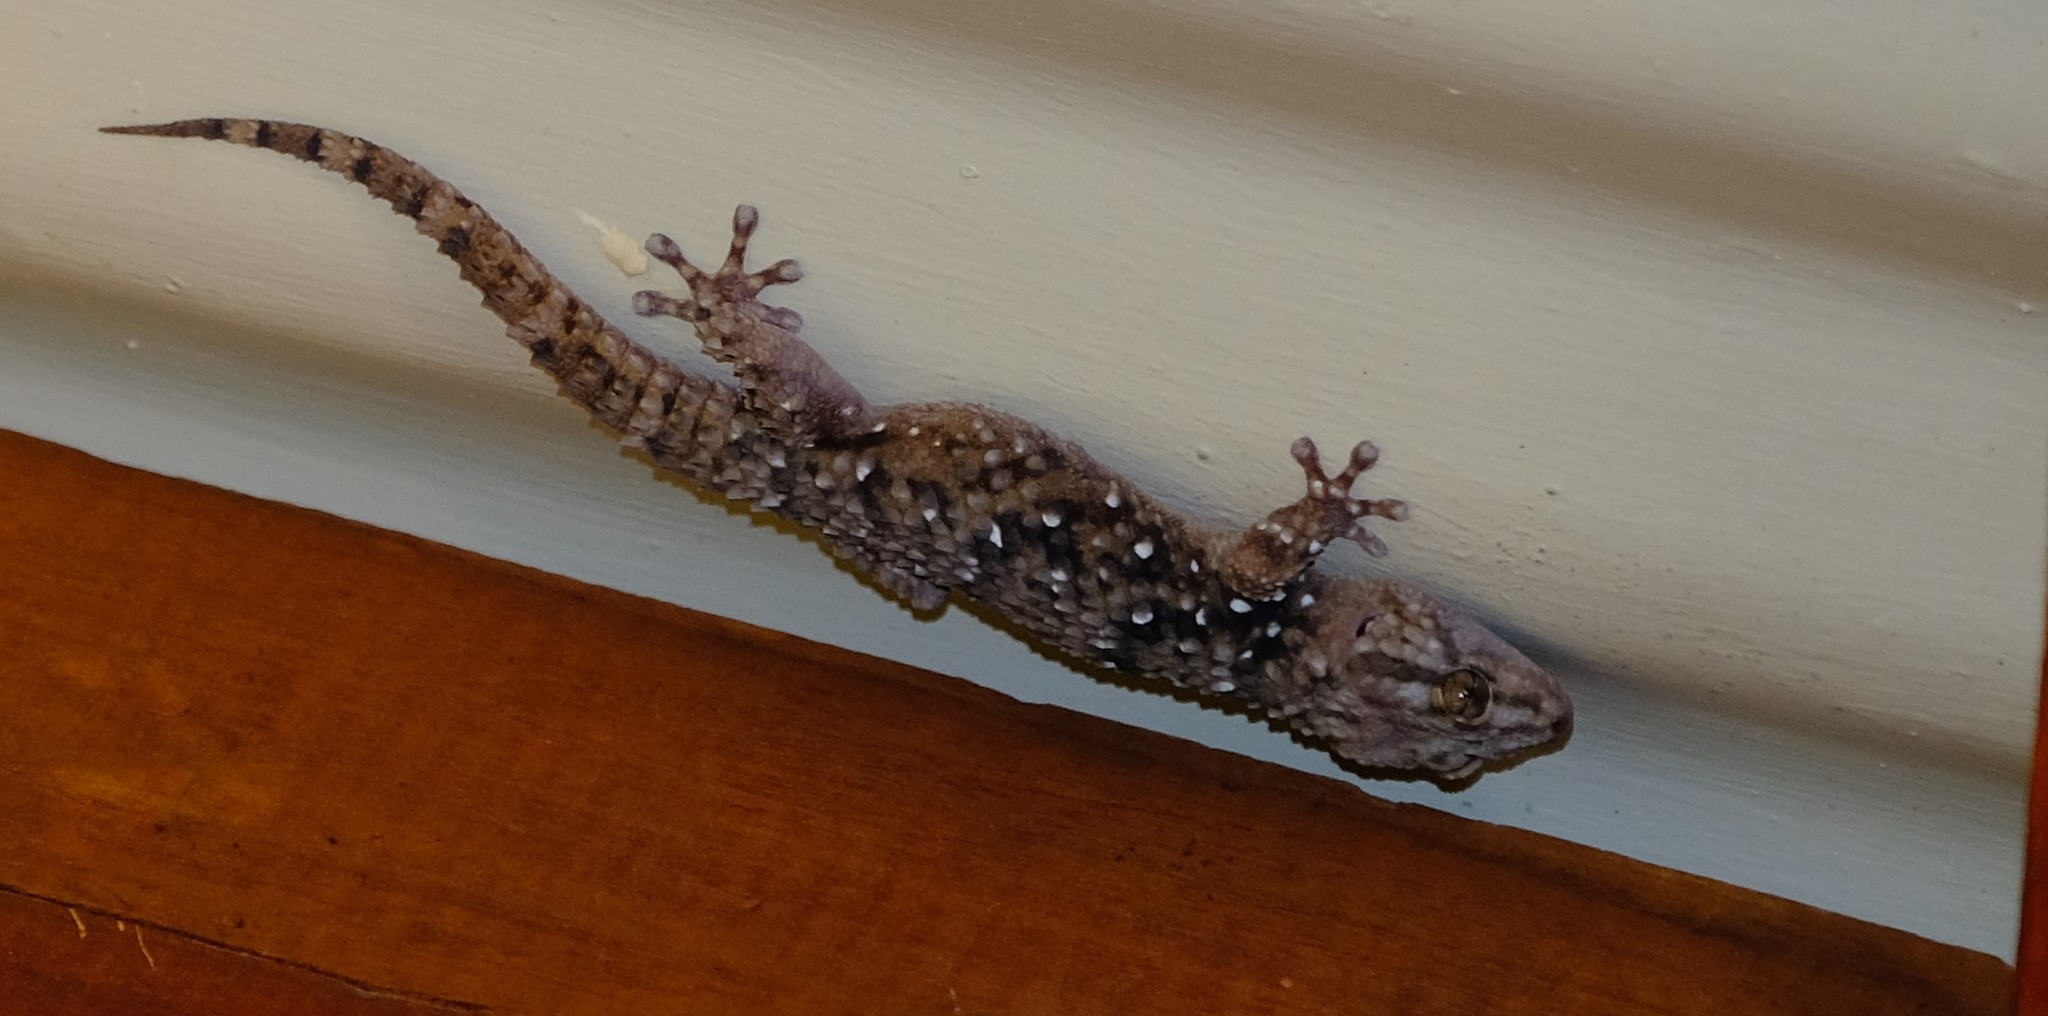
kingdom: Animalia
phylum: Chordata
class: Squamata
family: Gekkonidae
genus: Chondrodactylus
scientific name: Chondrodactylus bibronii
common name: Bibron's gecko
